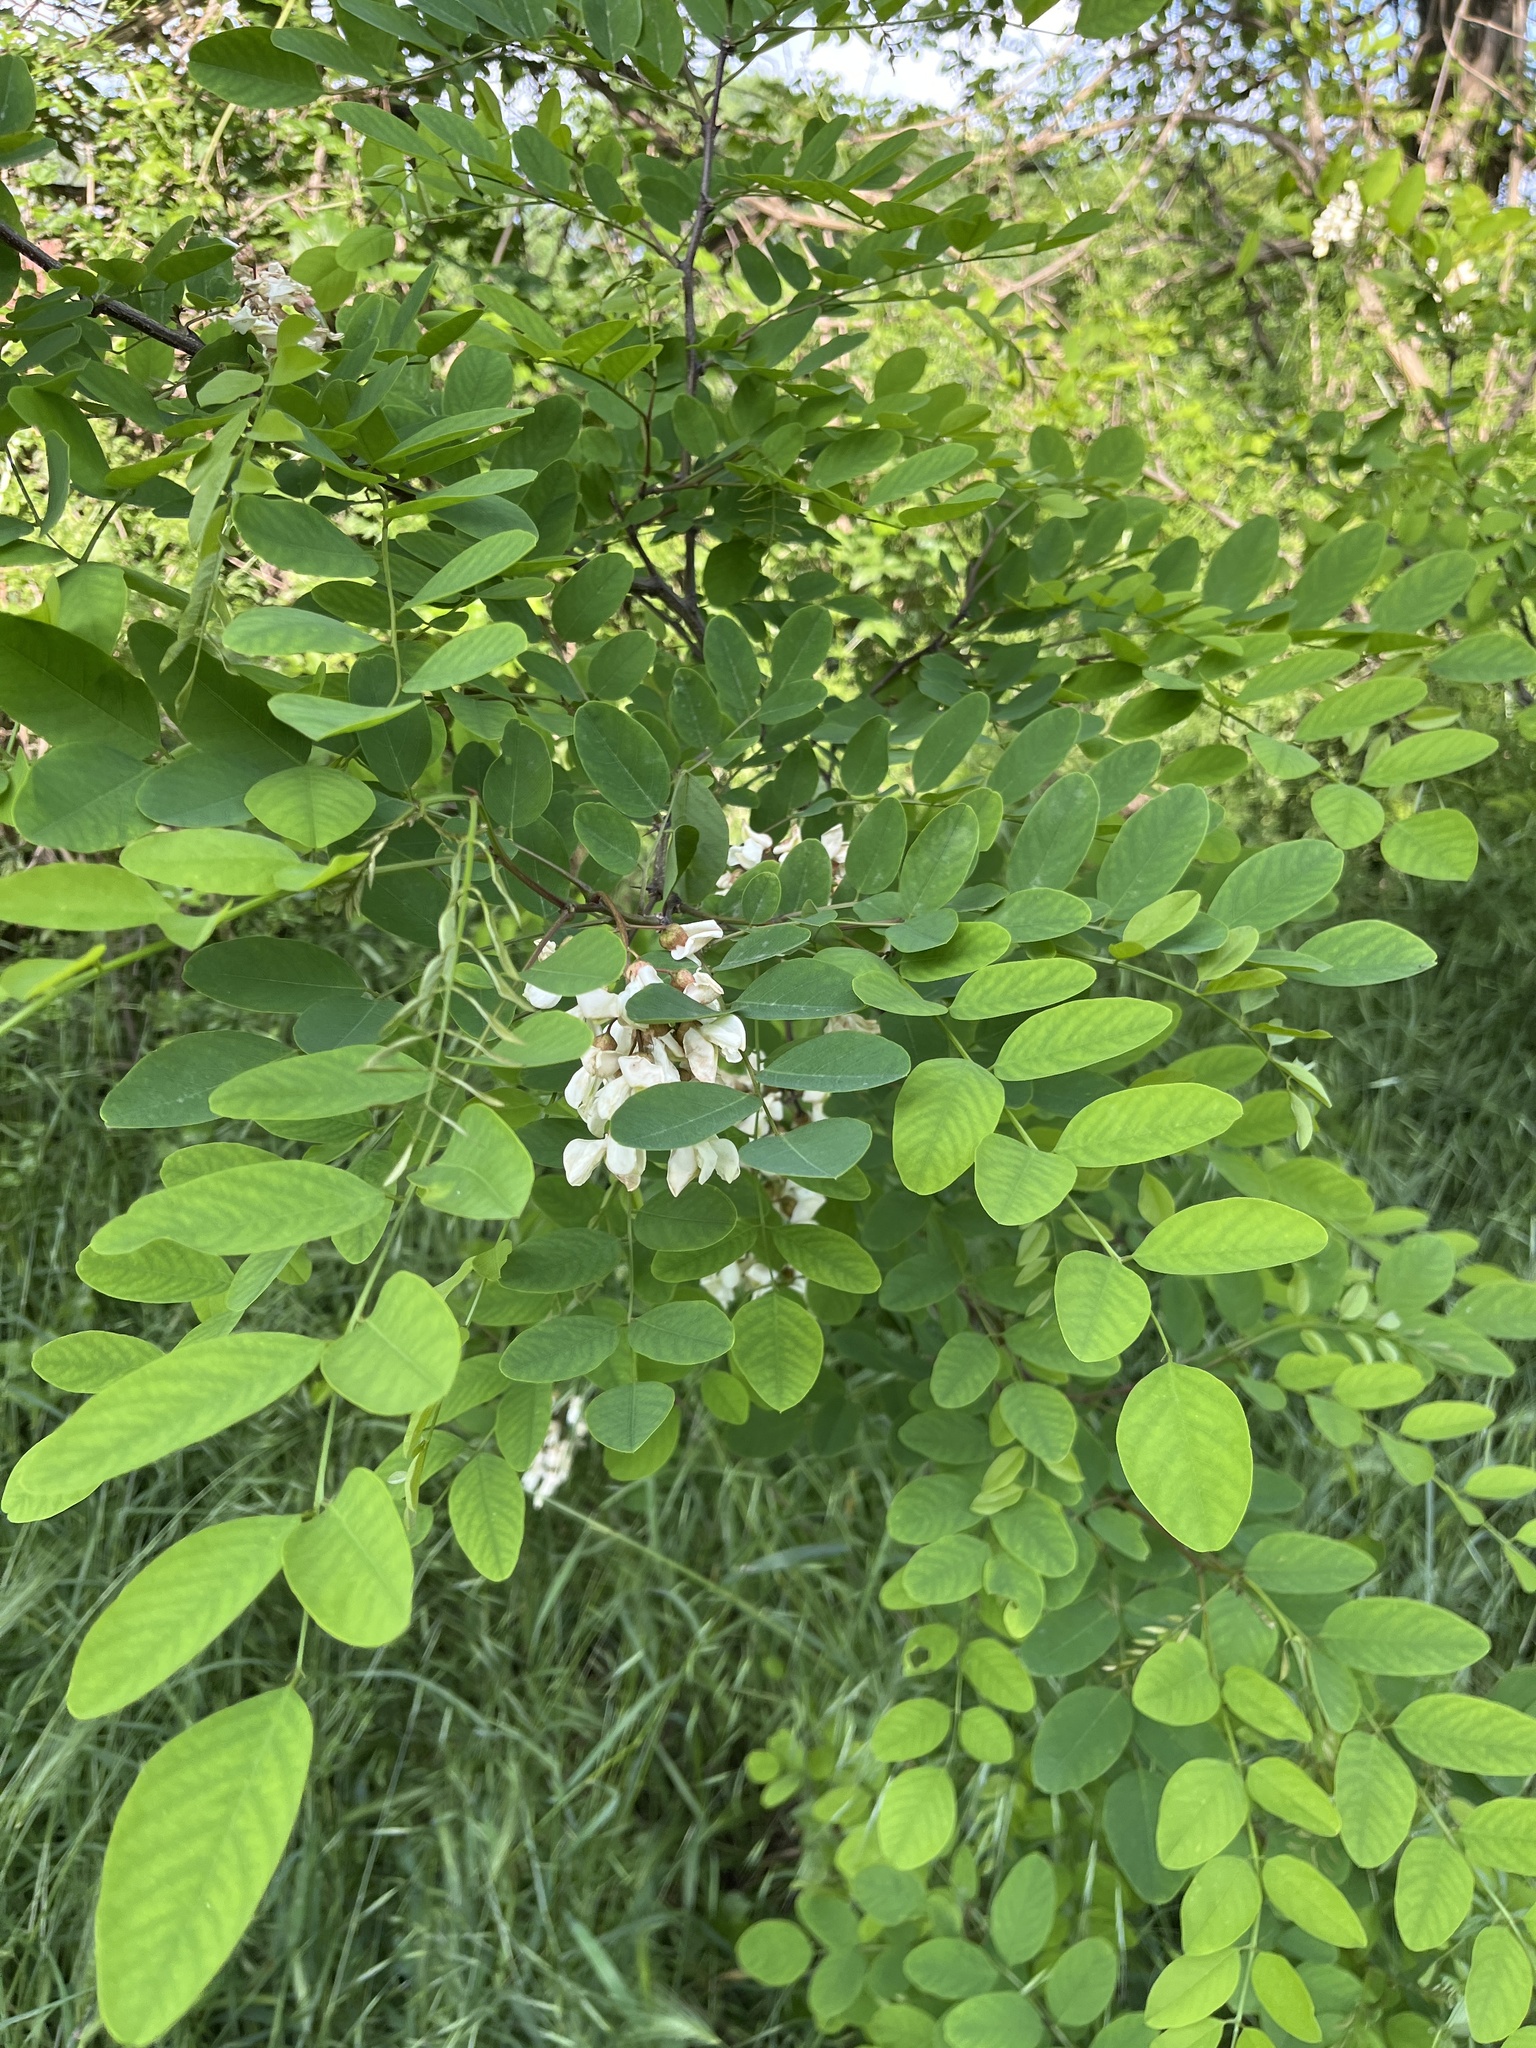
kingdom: Plantae
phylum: Tracheophyta
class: Magnoliopsida
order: Fabales
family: Fabaceae
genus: Robinia
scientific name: Robinia pseudoacacia
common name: Black locust
